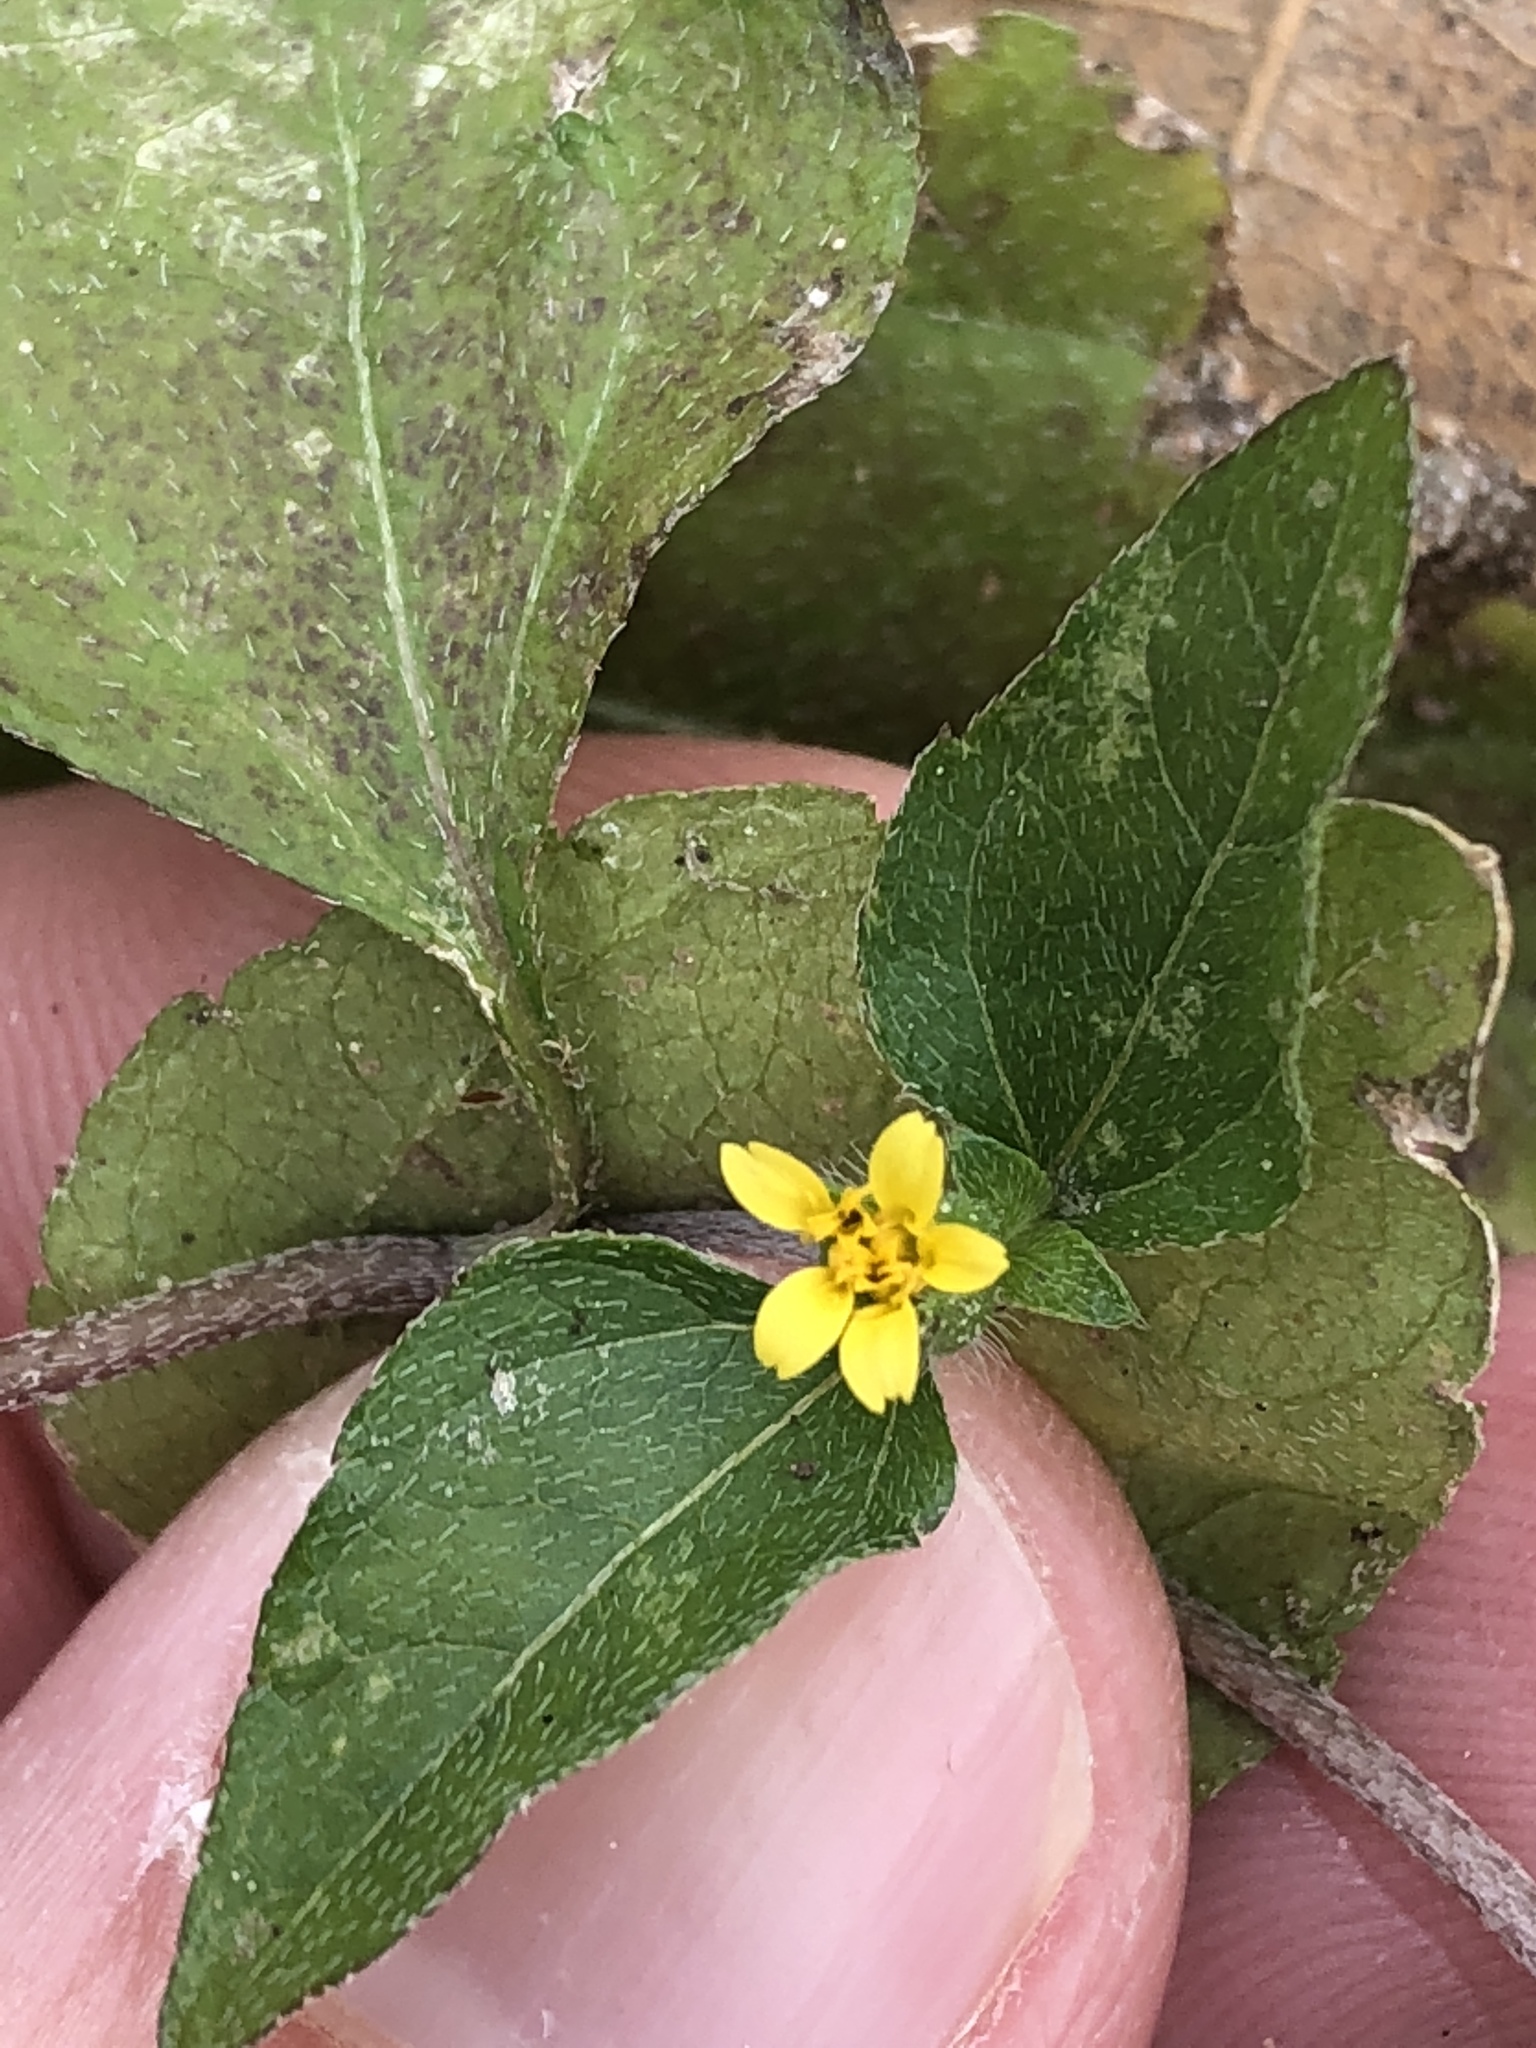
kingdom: Plantae
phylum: Tracheophyta
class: Magnoliopsida
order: Asterales
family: Asteraceae
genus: Calyptocarpus
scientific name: Calyptocarpus vialis
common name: Straggler daisy
